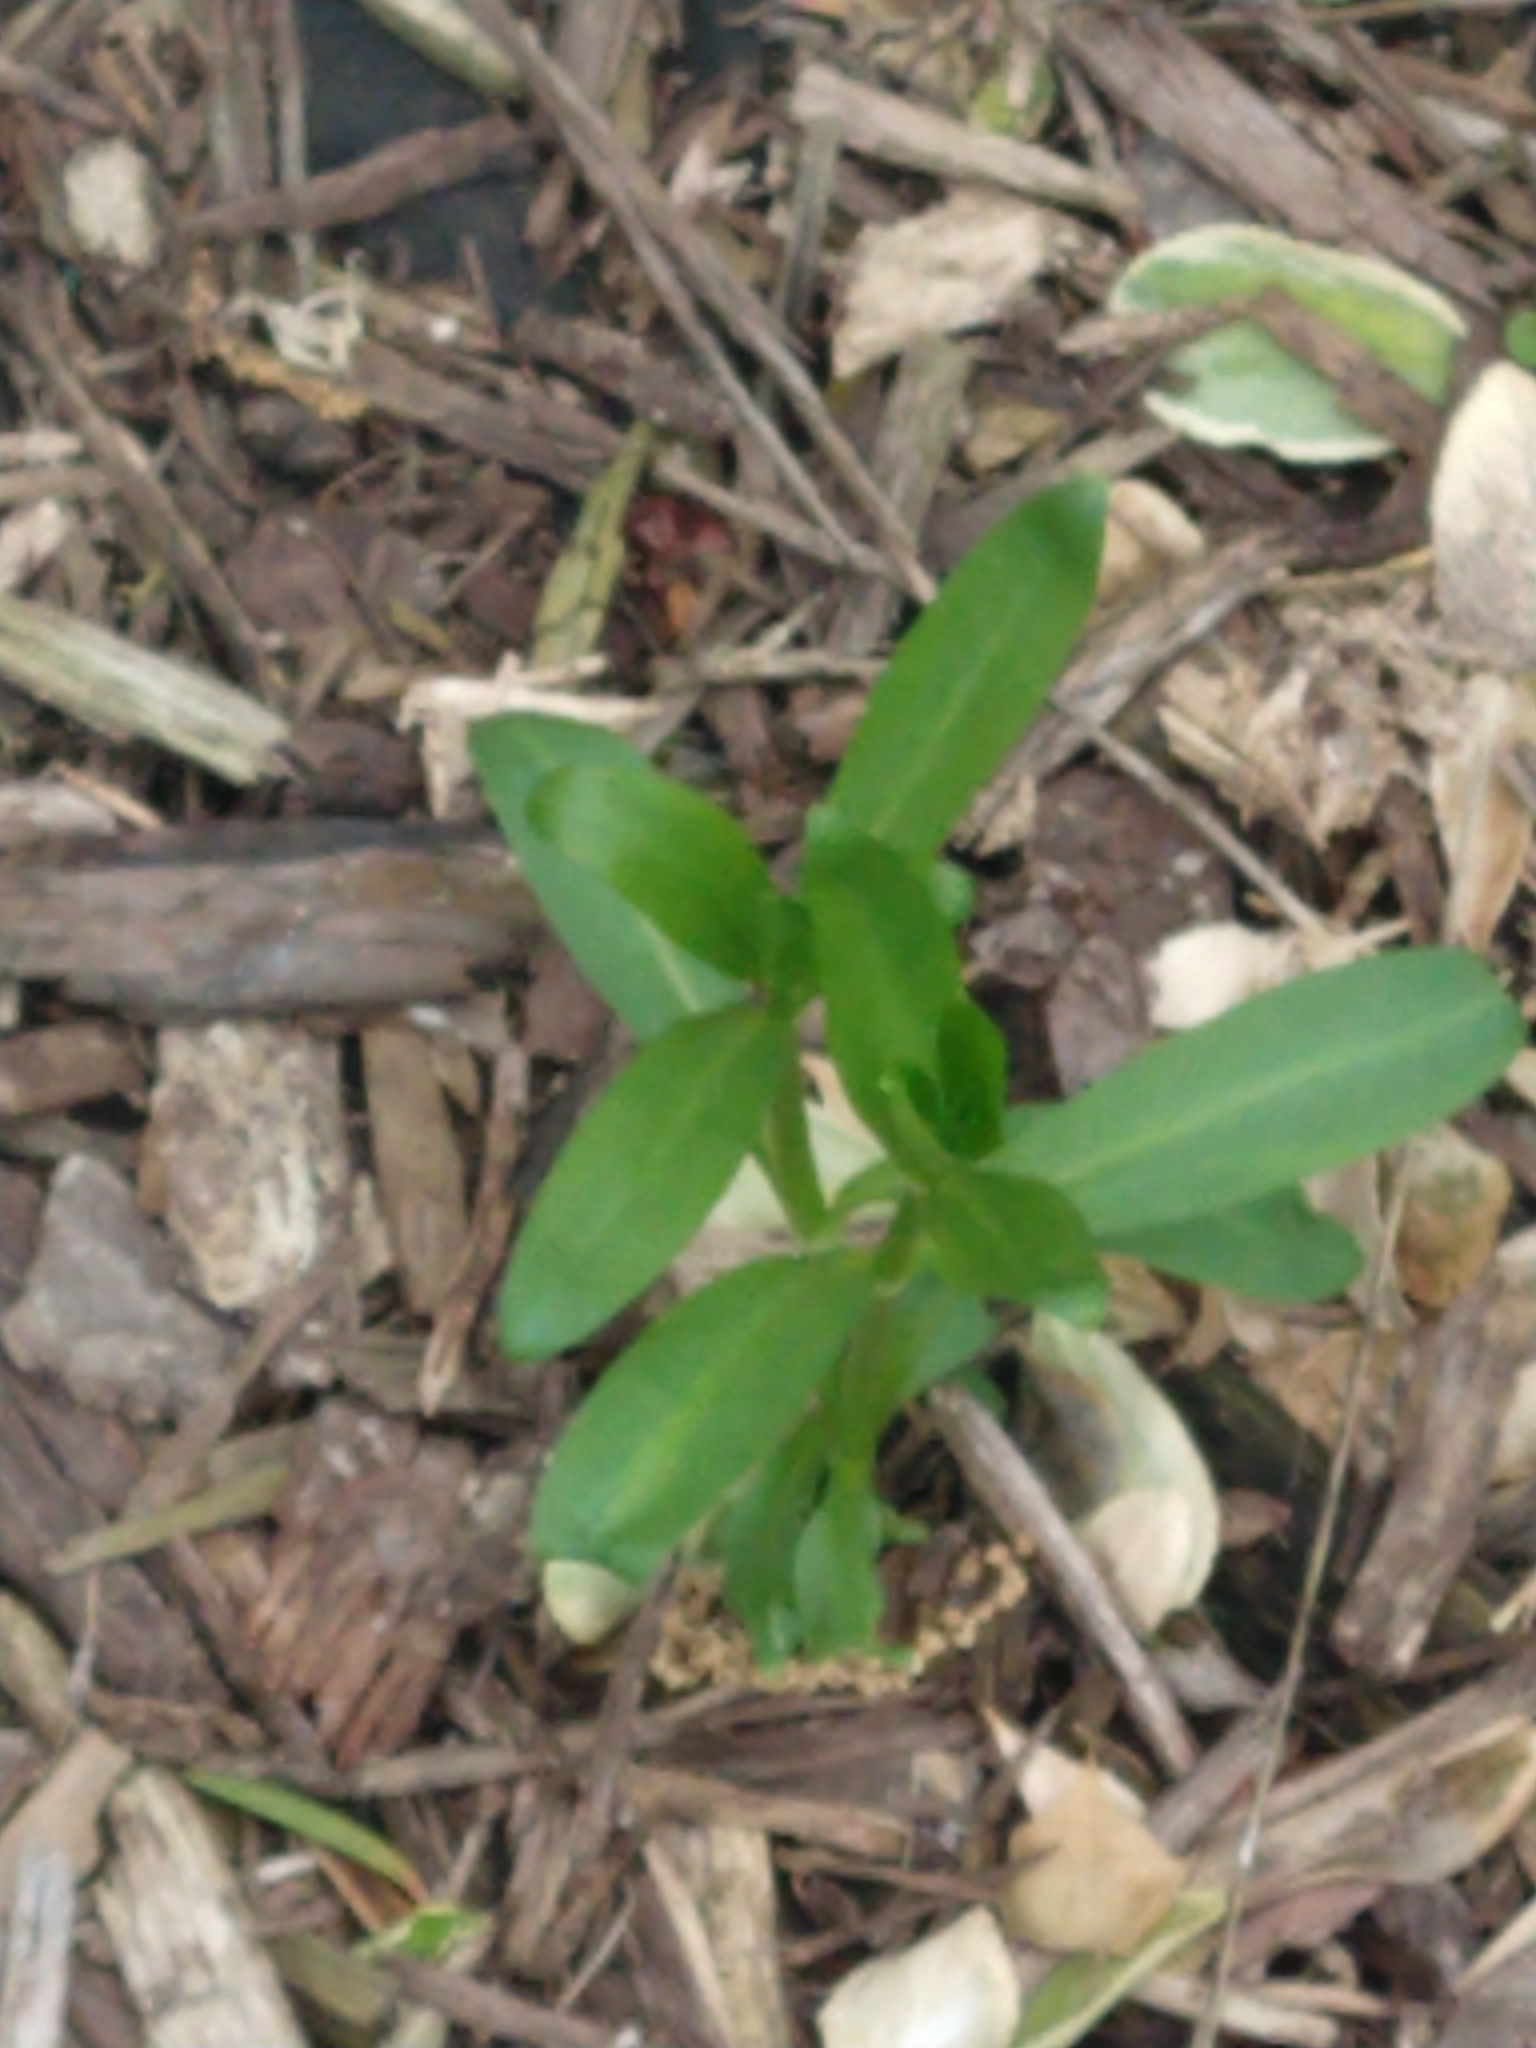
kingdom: Plantae
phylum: Tracheophyta
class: Magnoliopsida
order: Caryophyllales
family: Caryophyllaceae
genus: Silene
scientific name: Silene regia
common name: Royal catchfly
